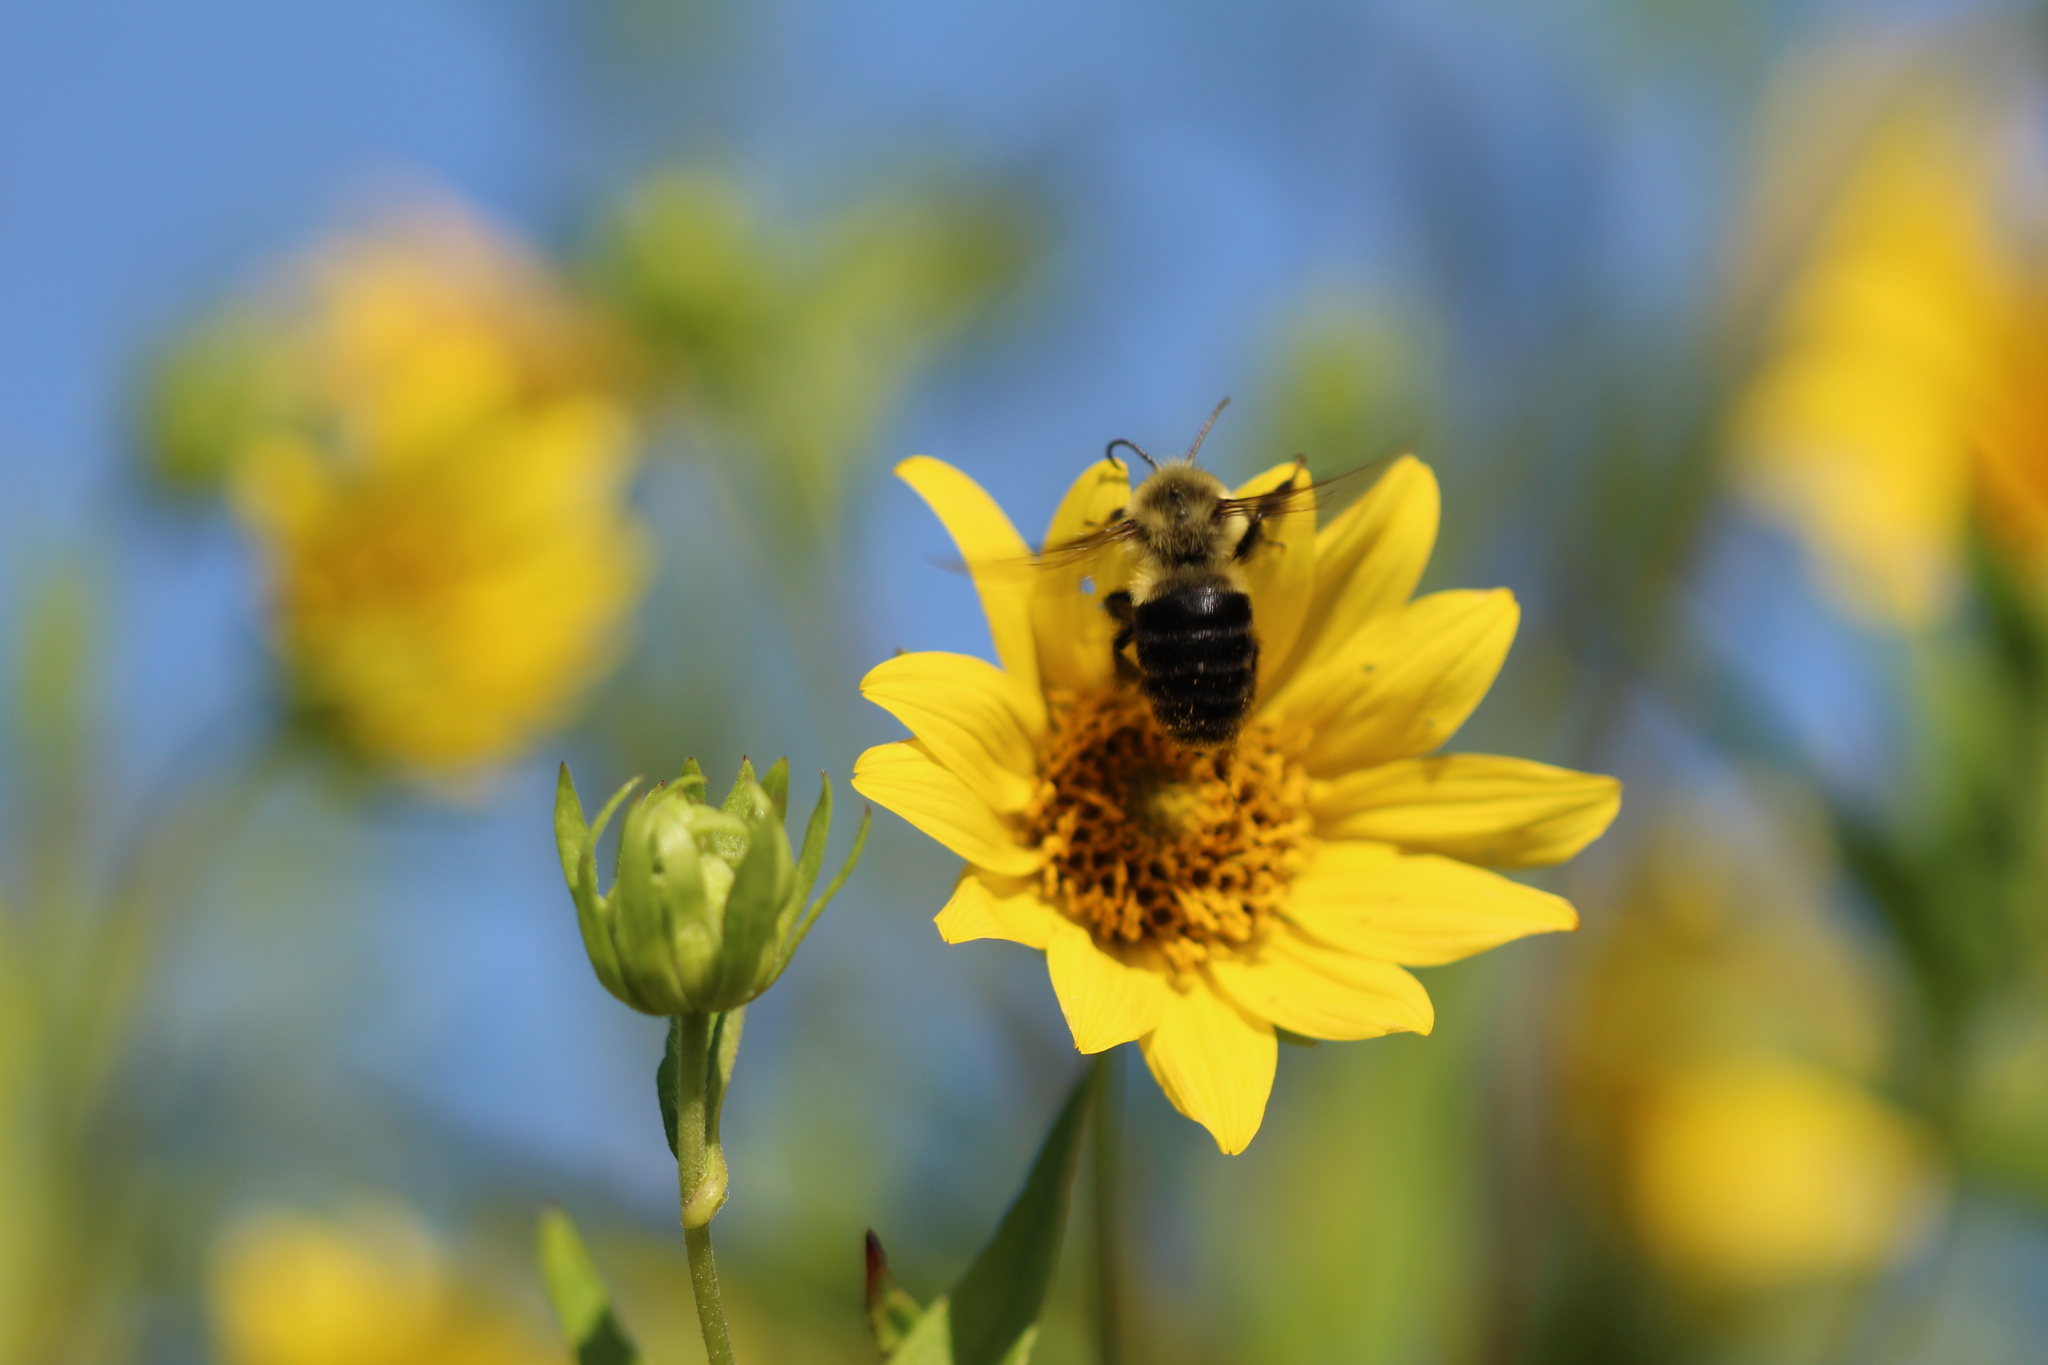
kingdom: Animalia
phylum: Arthropoda
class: Insecta
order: Hymenoptera
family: Apidae
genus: Bombus
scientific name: Bombus impatiens
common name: Common eastern bumble bee
